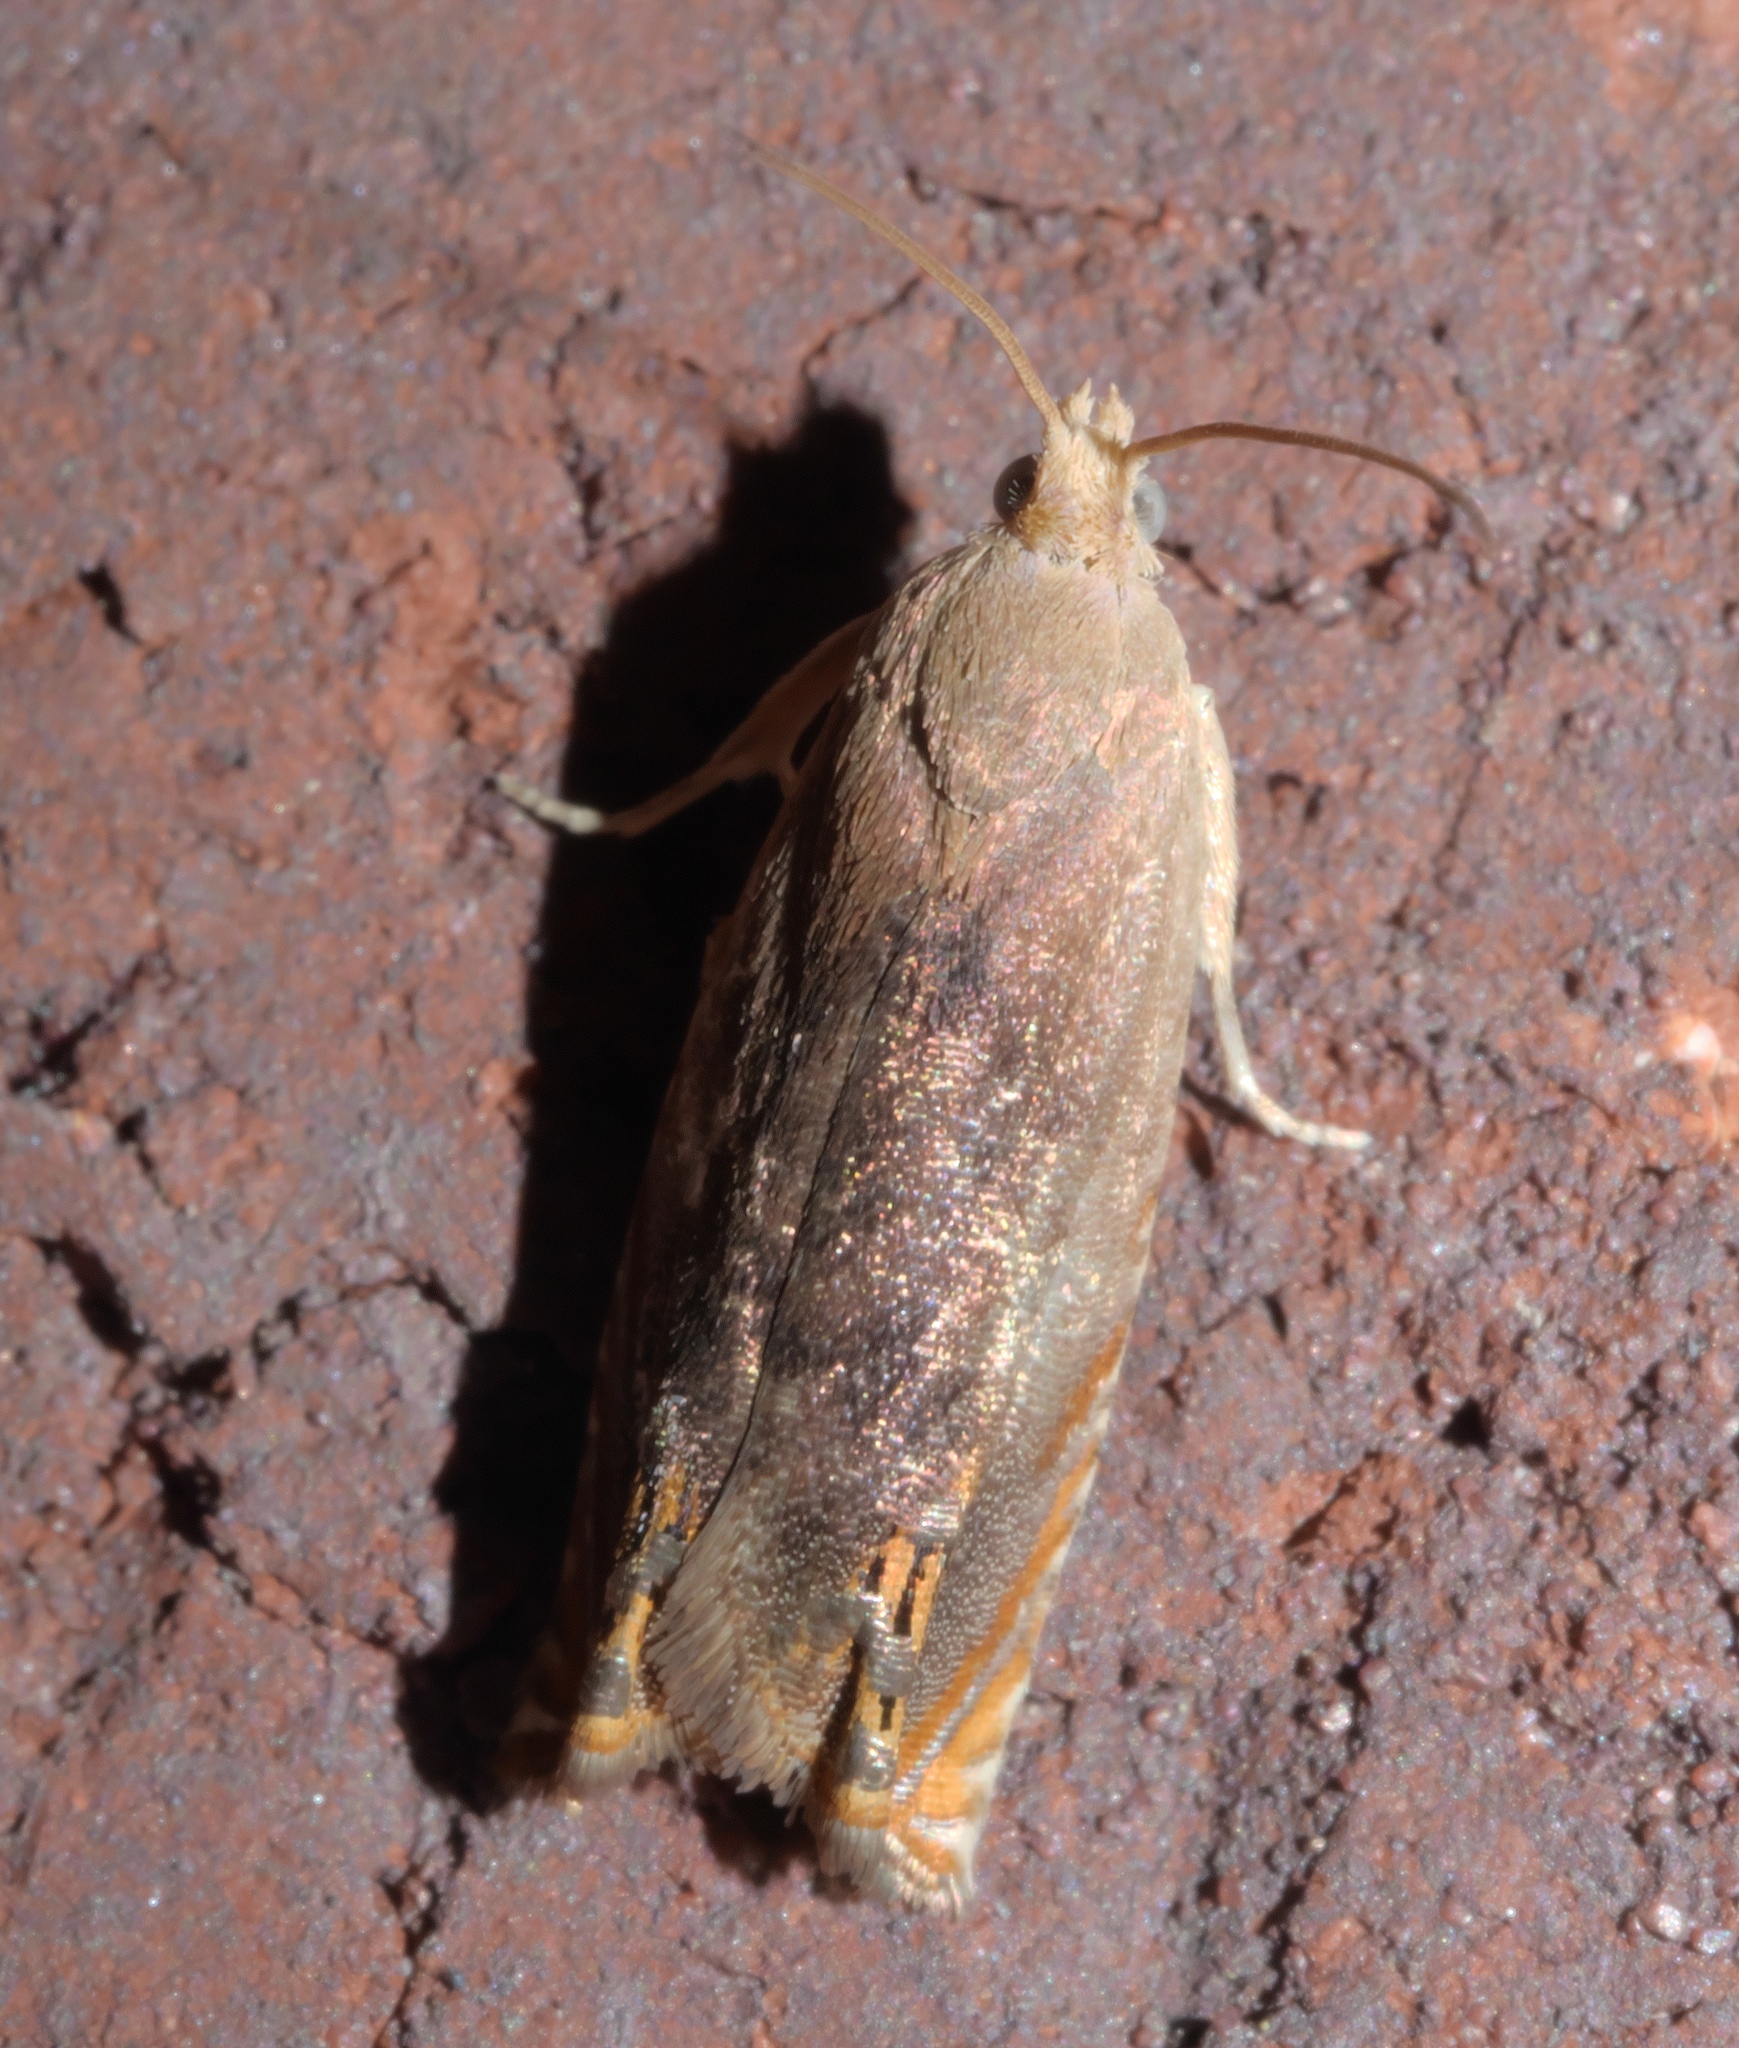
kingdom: Animalia
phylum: Arthropoda
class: Insecta
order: Lepidoptera
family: Tortricidae
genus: Hystrichophora
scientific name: Hystrichophora taleana
